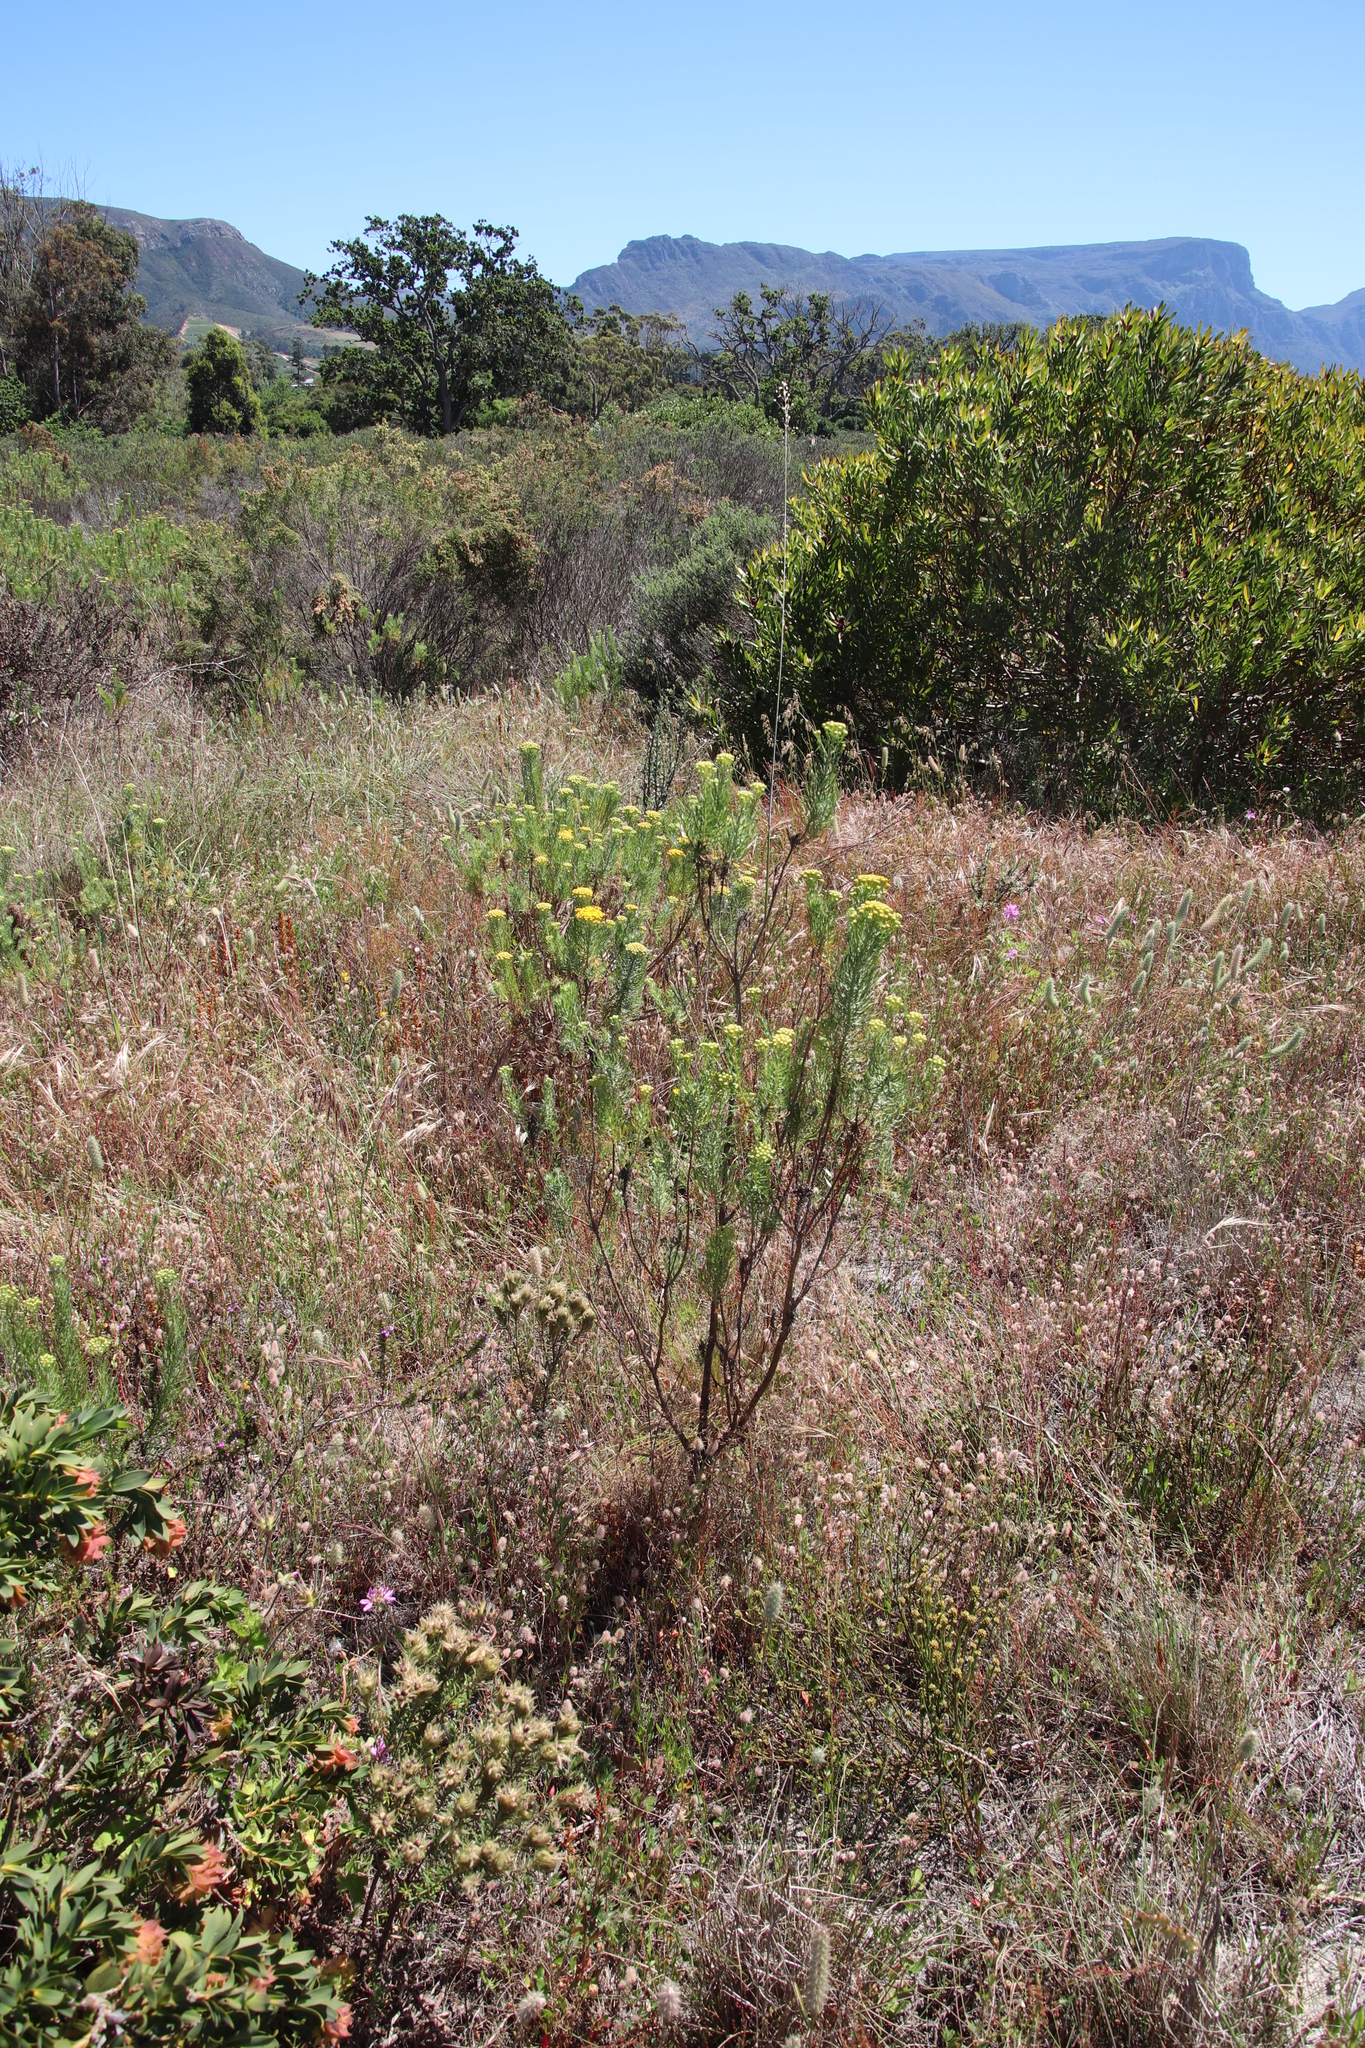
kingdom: Plantae
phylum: Tracheophyta
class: Magnoliopsida
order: Asterales
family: Asteraceae
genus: Athanasia
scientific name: Athanasia crithmifolia
